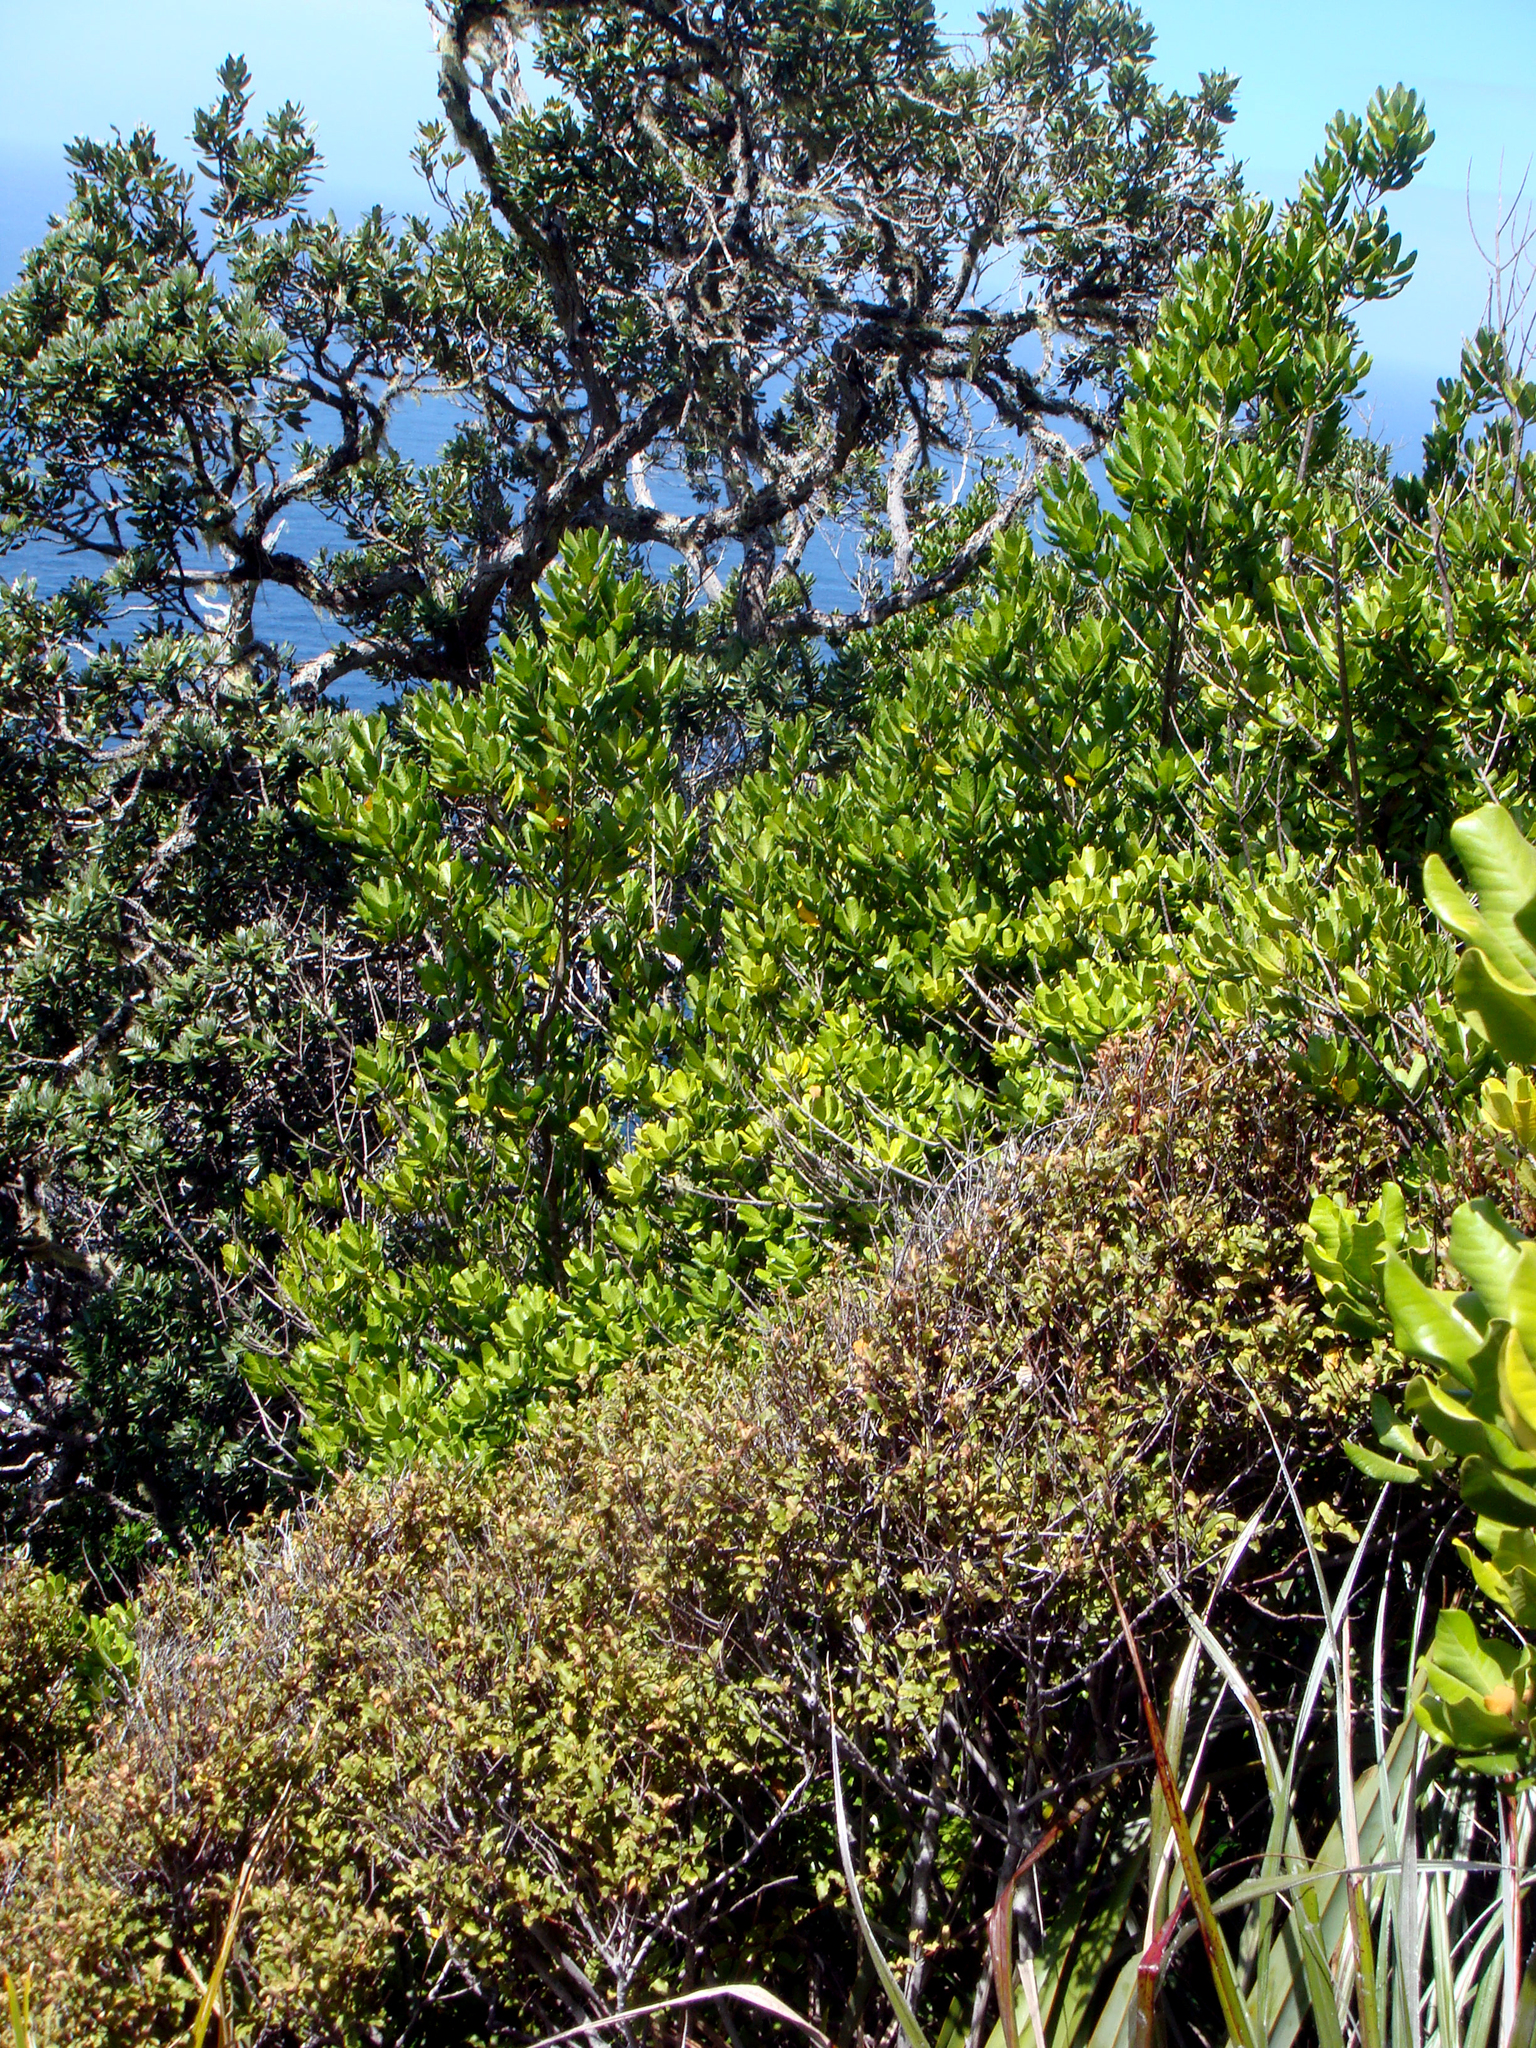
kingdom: Plantae
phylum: Tracheophyta
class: Magnoliopsida
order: Ericales
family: Sapotaceae
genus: Planchonella
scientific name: Planchonella costata
